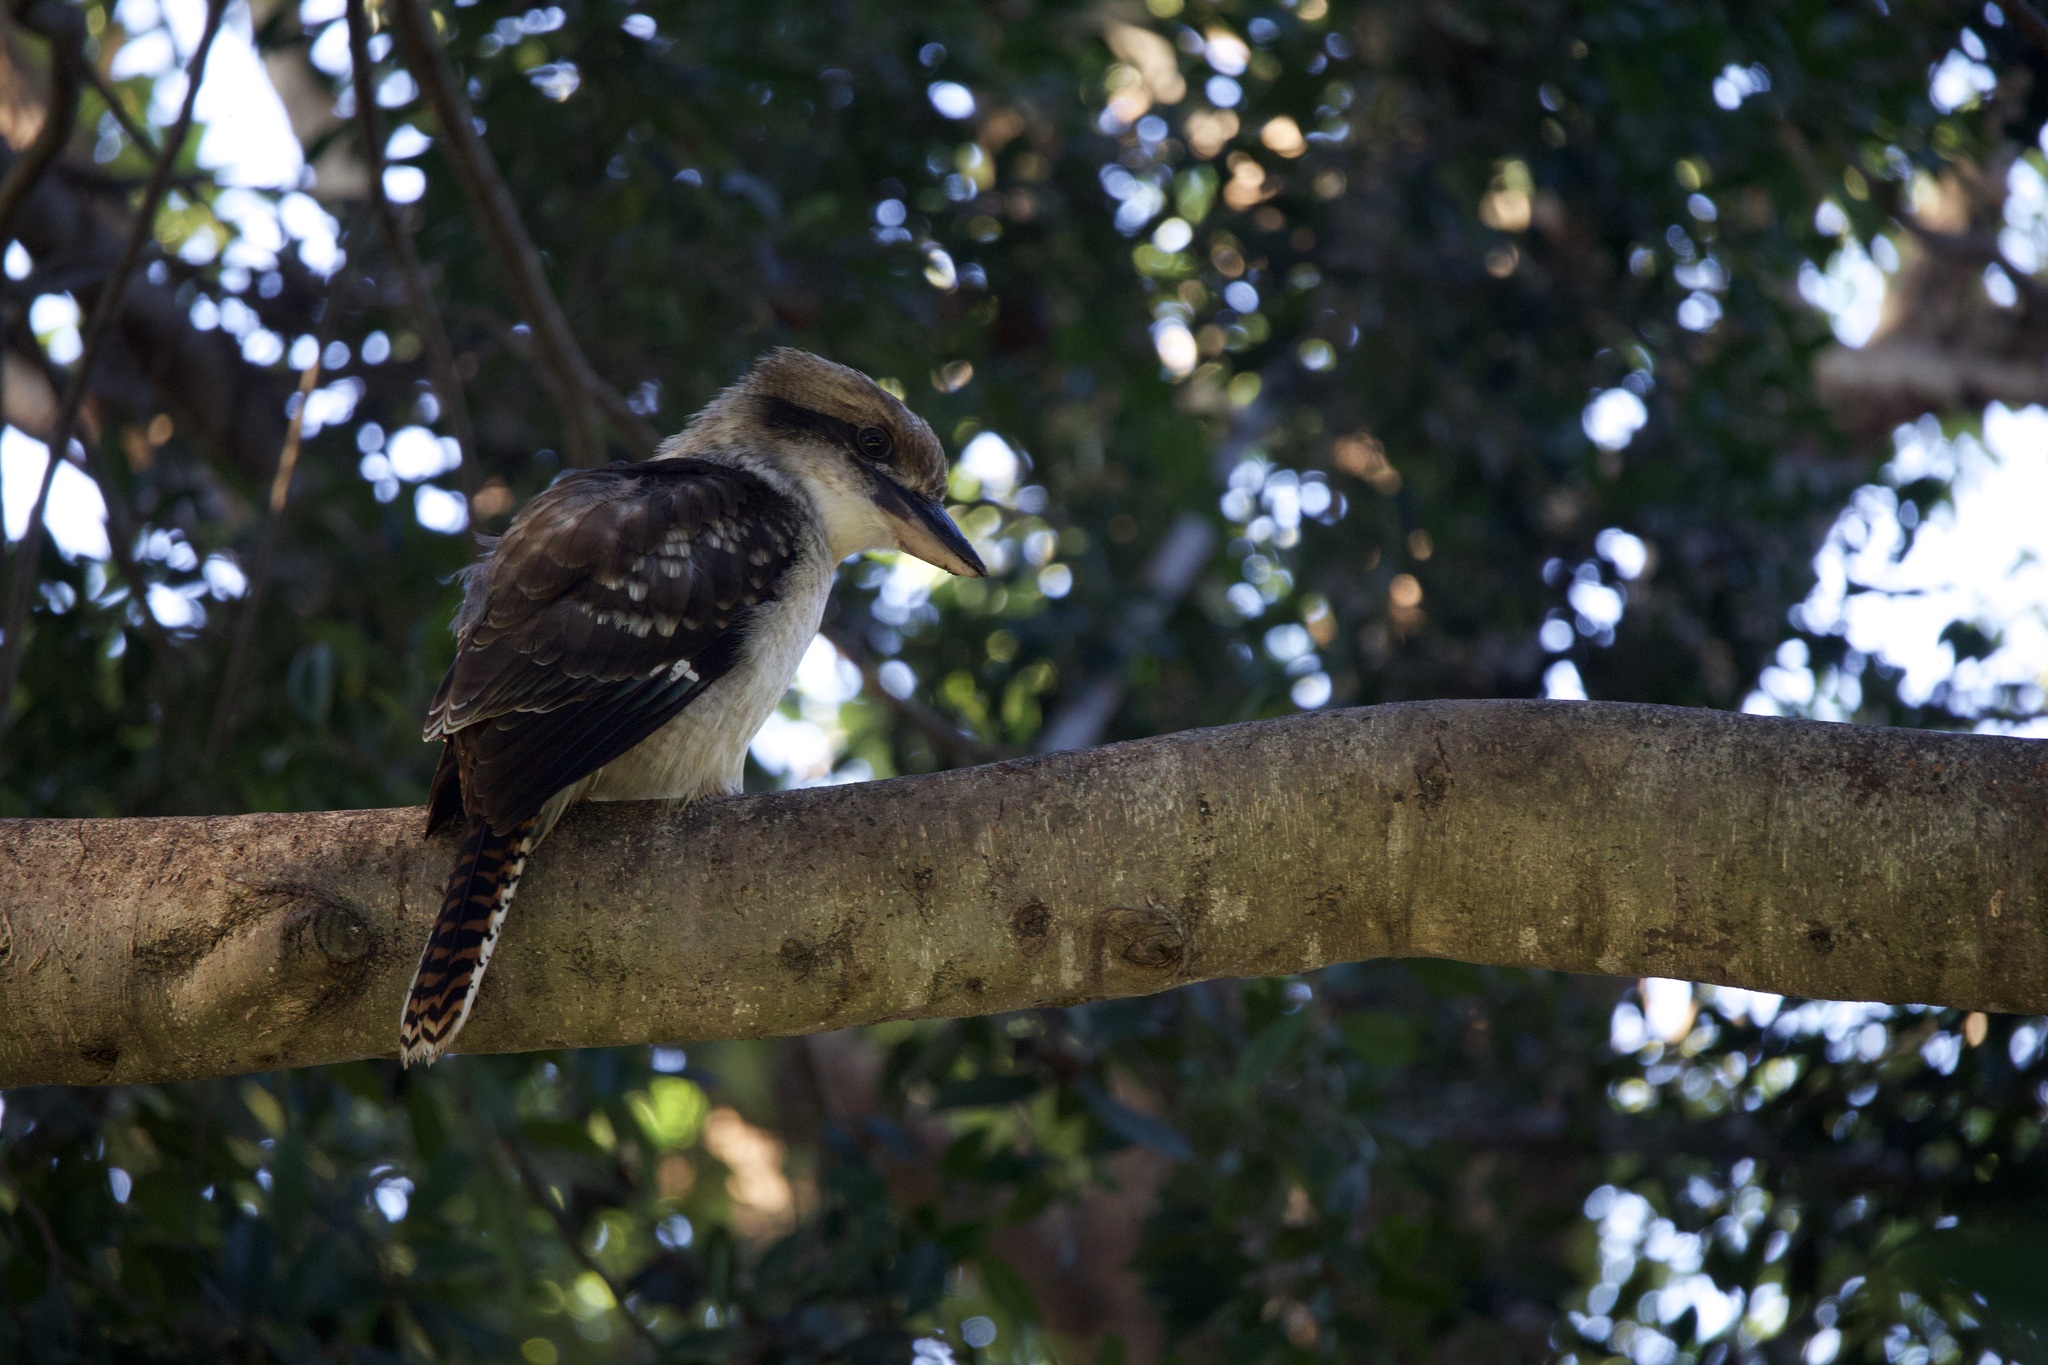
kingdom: Animalia
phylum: Chordata
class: Aves
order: Coraciiformes
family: Alcedinidae
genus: Dacelo
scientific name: Dacelo novaeguineae
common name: Laughing kookaburra
